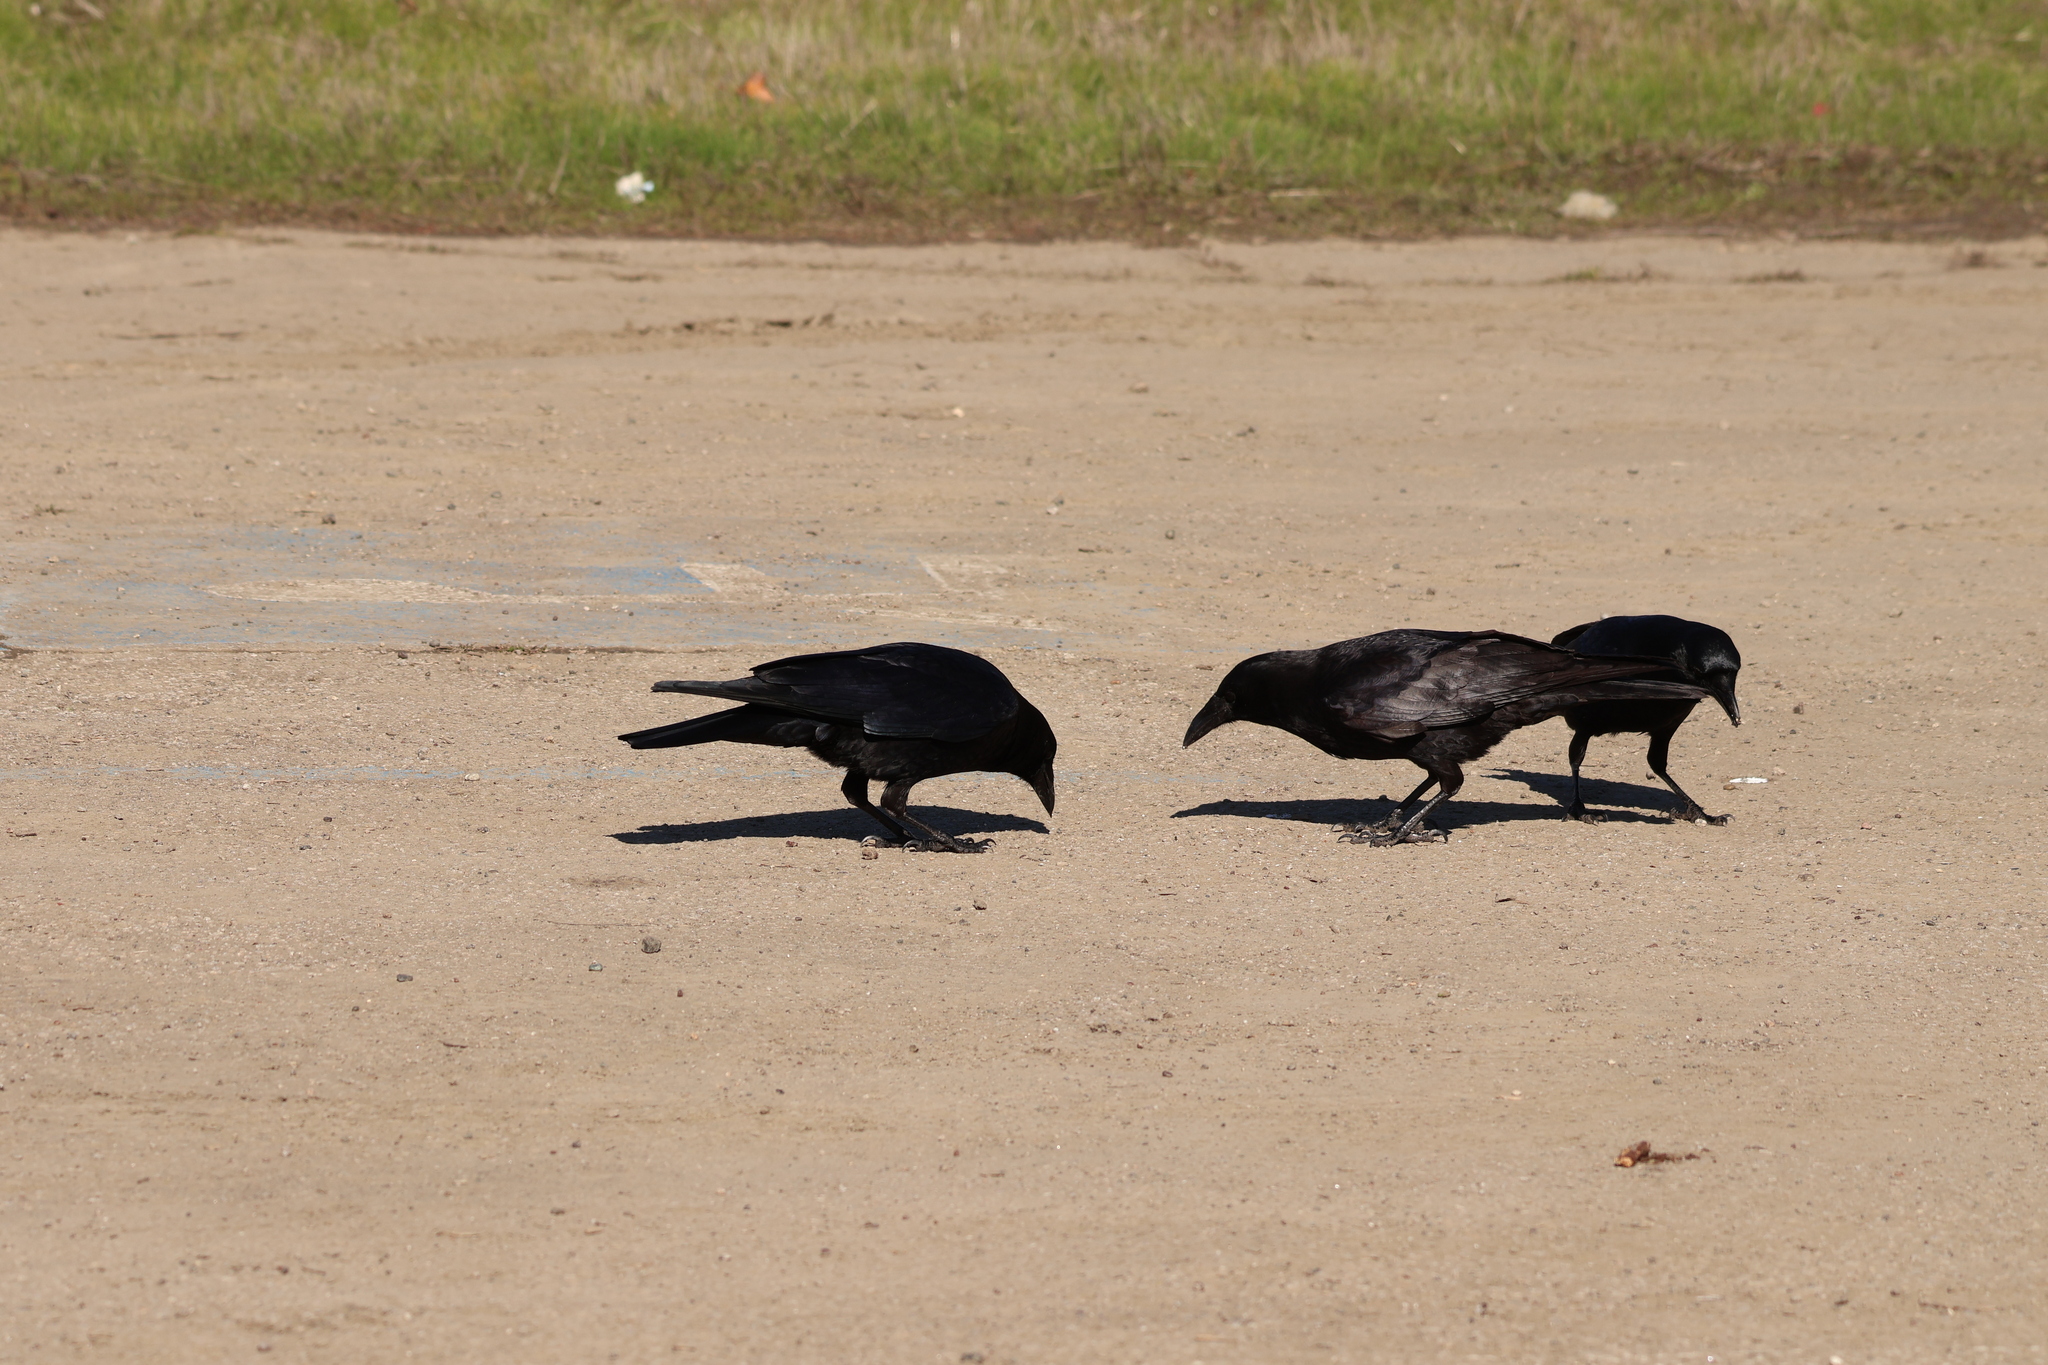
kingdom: Animalia
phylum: Chordata
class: Aves
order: Passeriformes
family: Corvidae
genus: Corvus
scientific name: Corvus brachyrhynchos
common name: American crow
